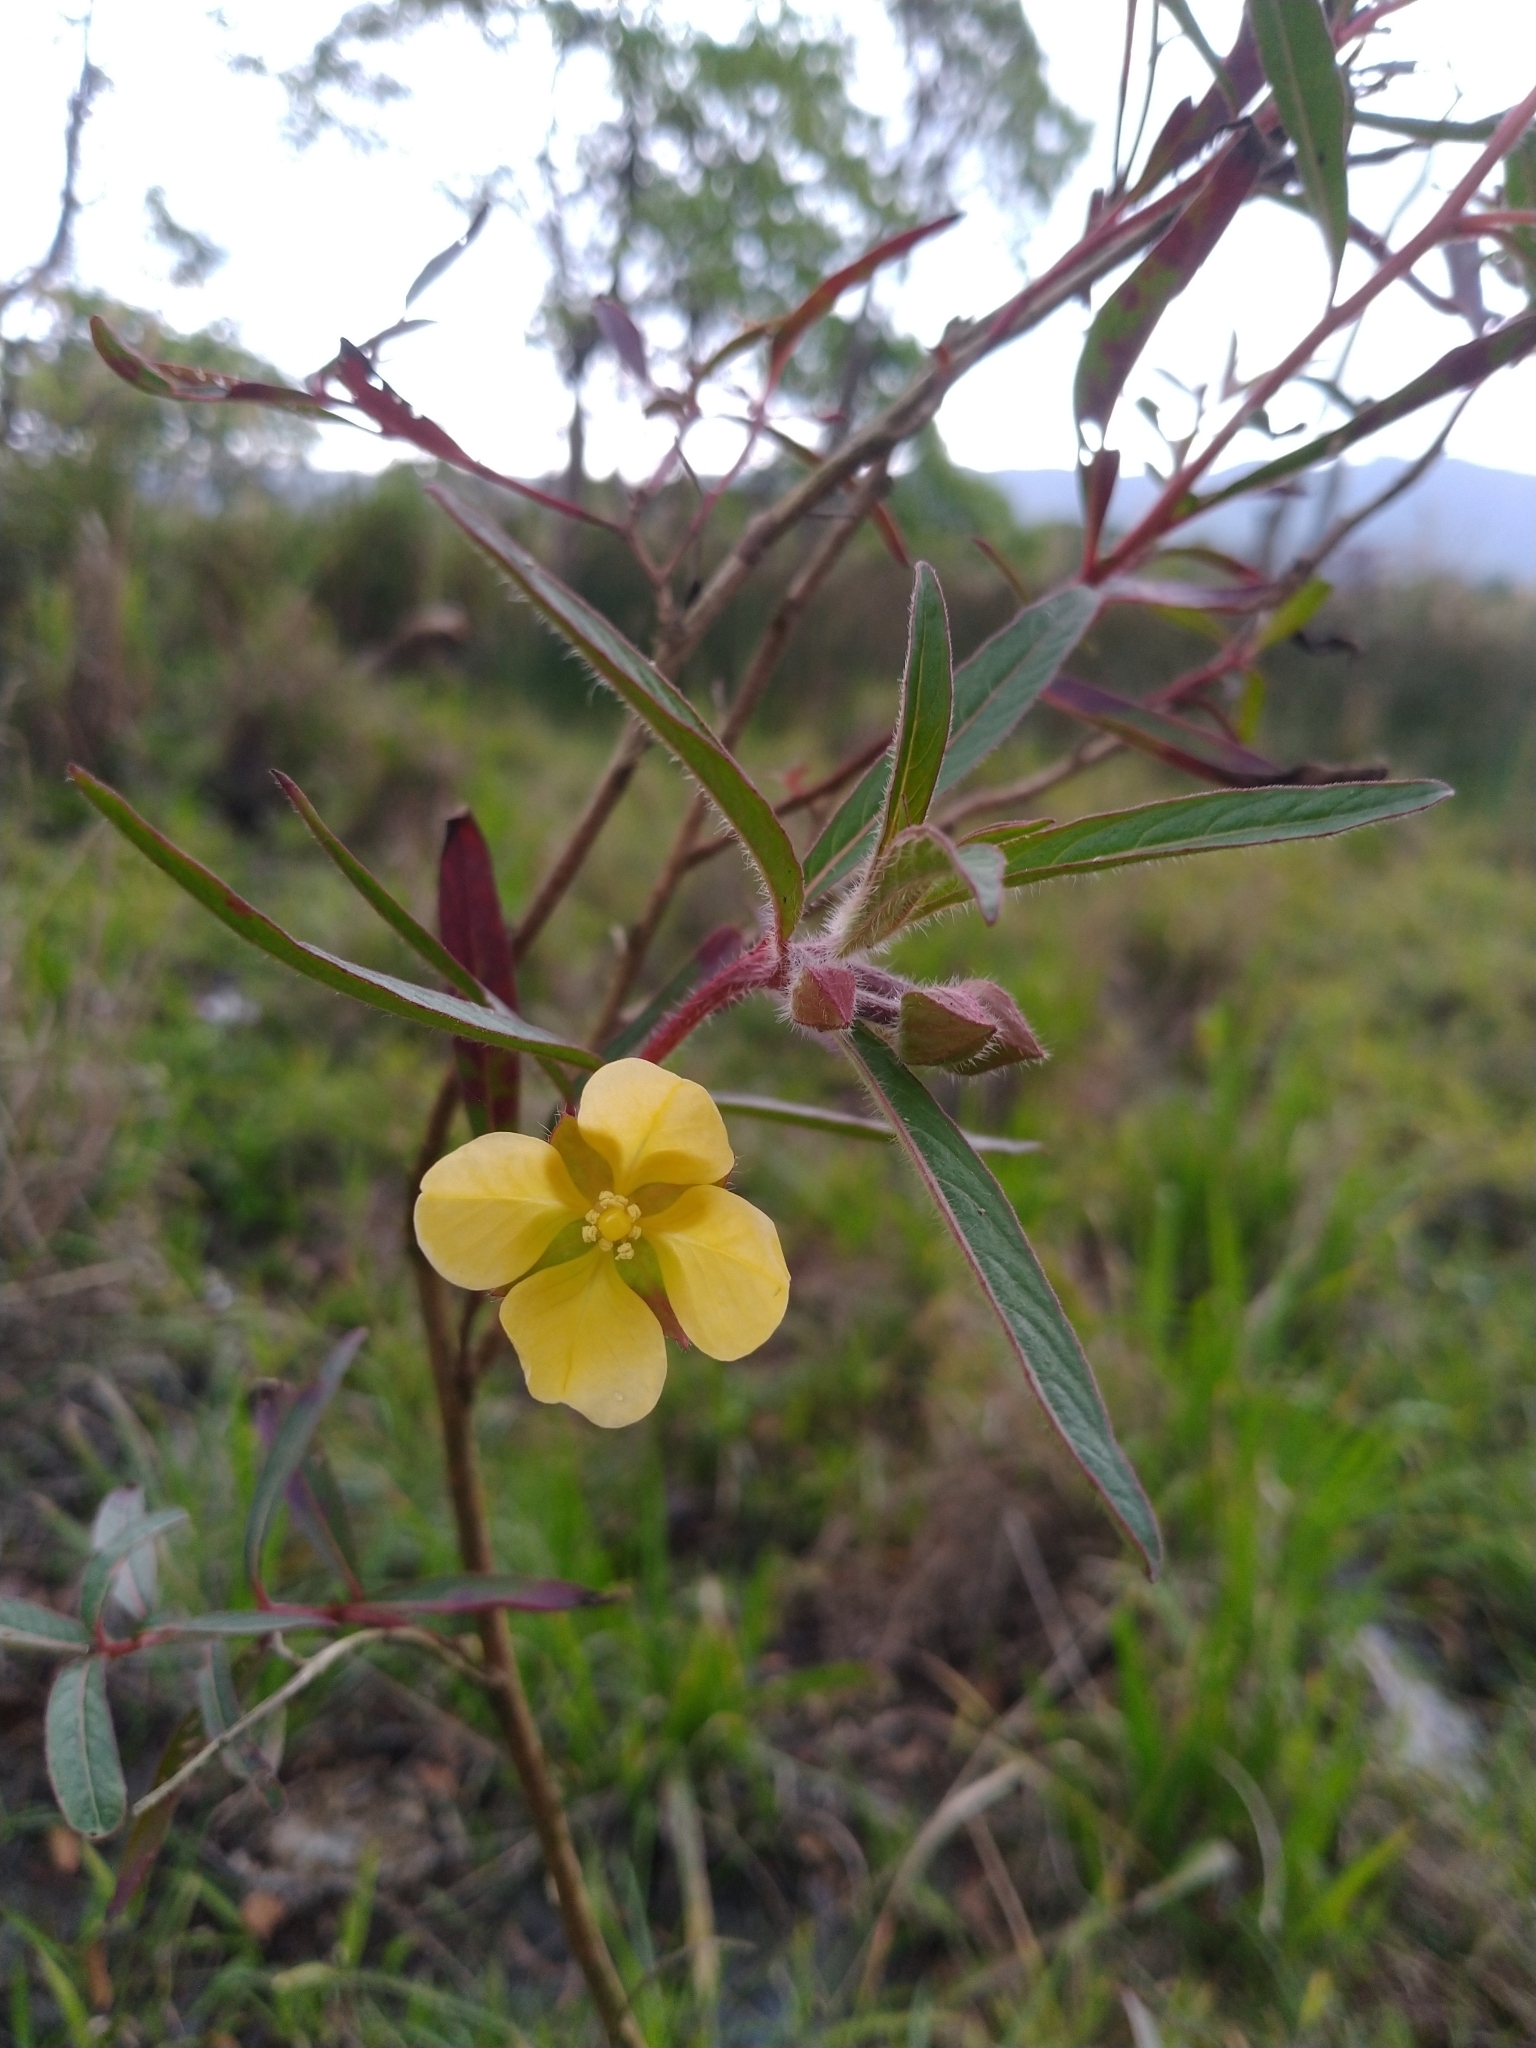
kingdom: Plantae
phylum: Tracheophyta
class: Magnoliopsida
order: Myrtales
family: Onagraceae
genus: Ludwigia
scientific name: Ludwigia octovalvis
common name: Water-primrose
